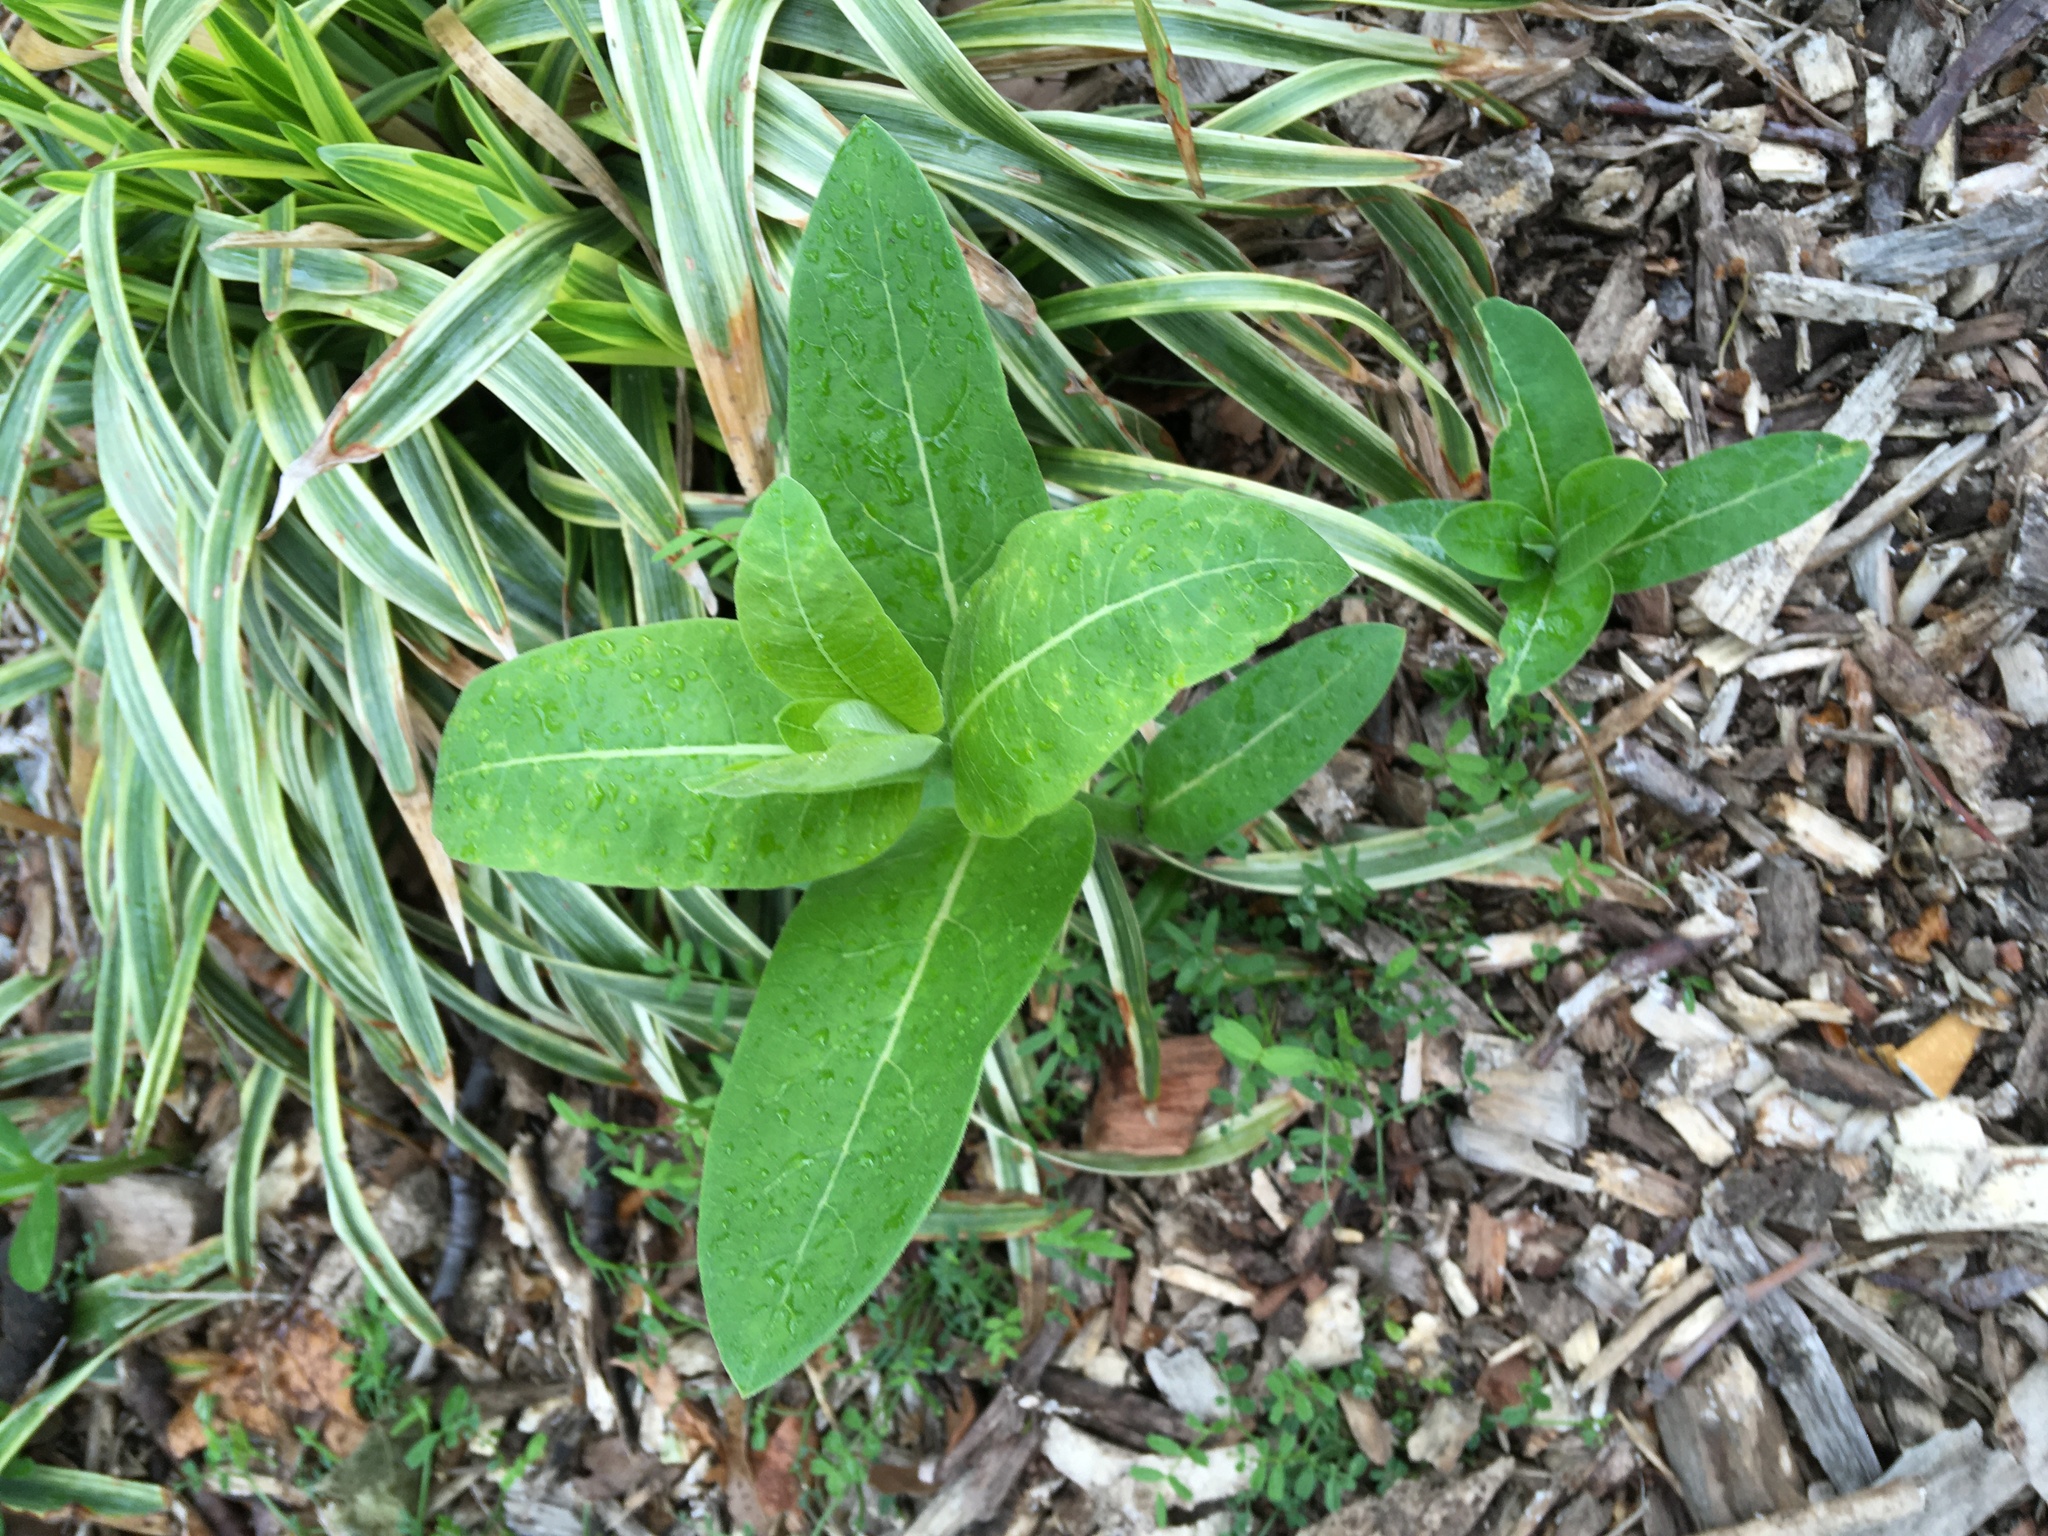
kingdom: Plantae
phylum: Tracheophyta
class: Magnoliopsida
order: Gentianales
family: Apocynaceae
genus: Asclepias
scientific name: Asclepias syriaca
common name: Common milkweed
